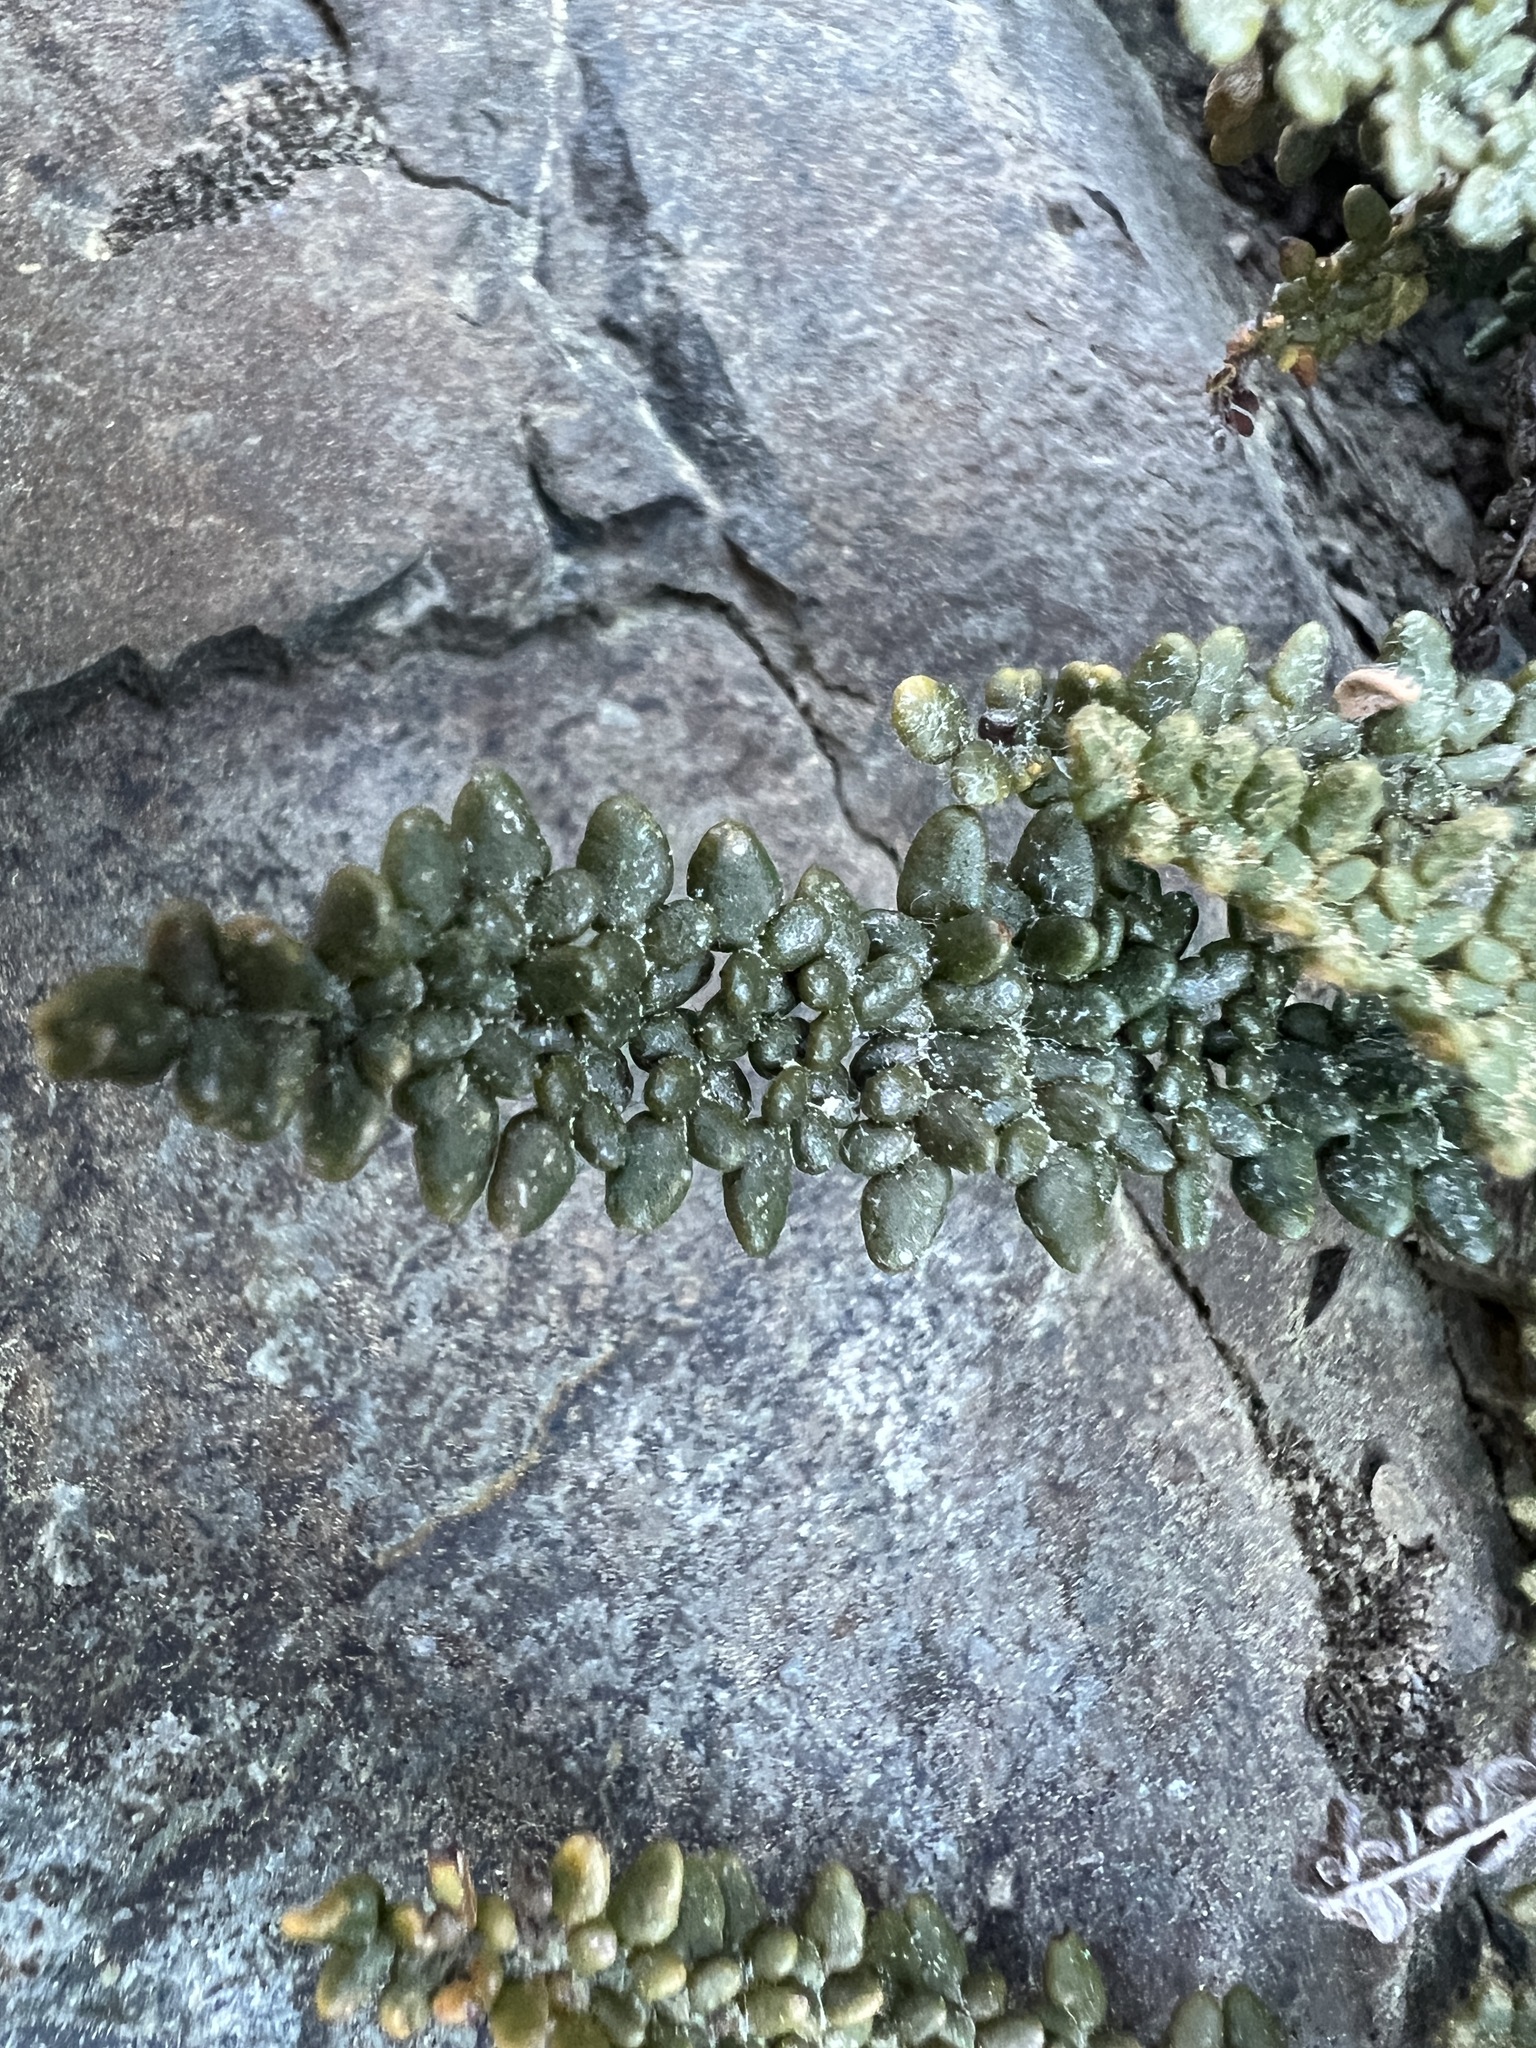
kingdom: Plantae
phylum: Tracheophyta
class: Polypodiopsida
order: Polypodiales
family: Pteridaceae
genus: Myriopteris
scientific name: Myriopteris gracillima
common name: Lace fern
